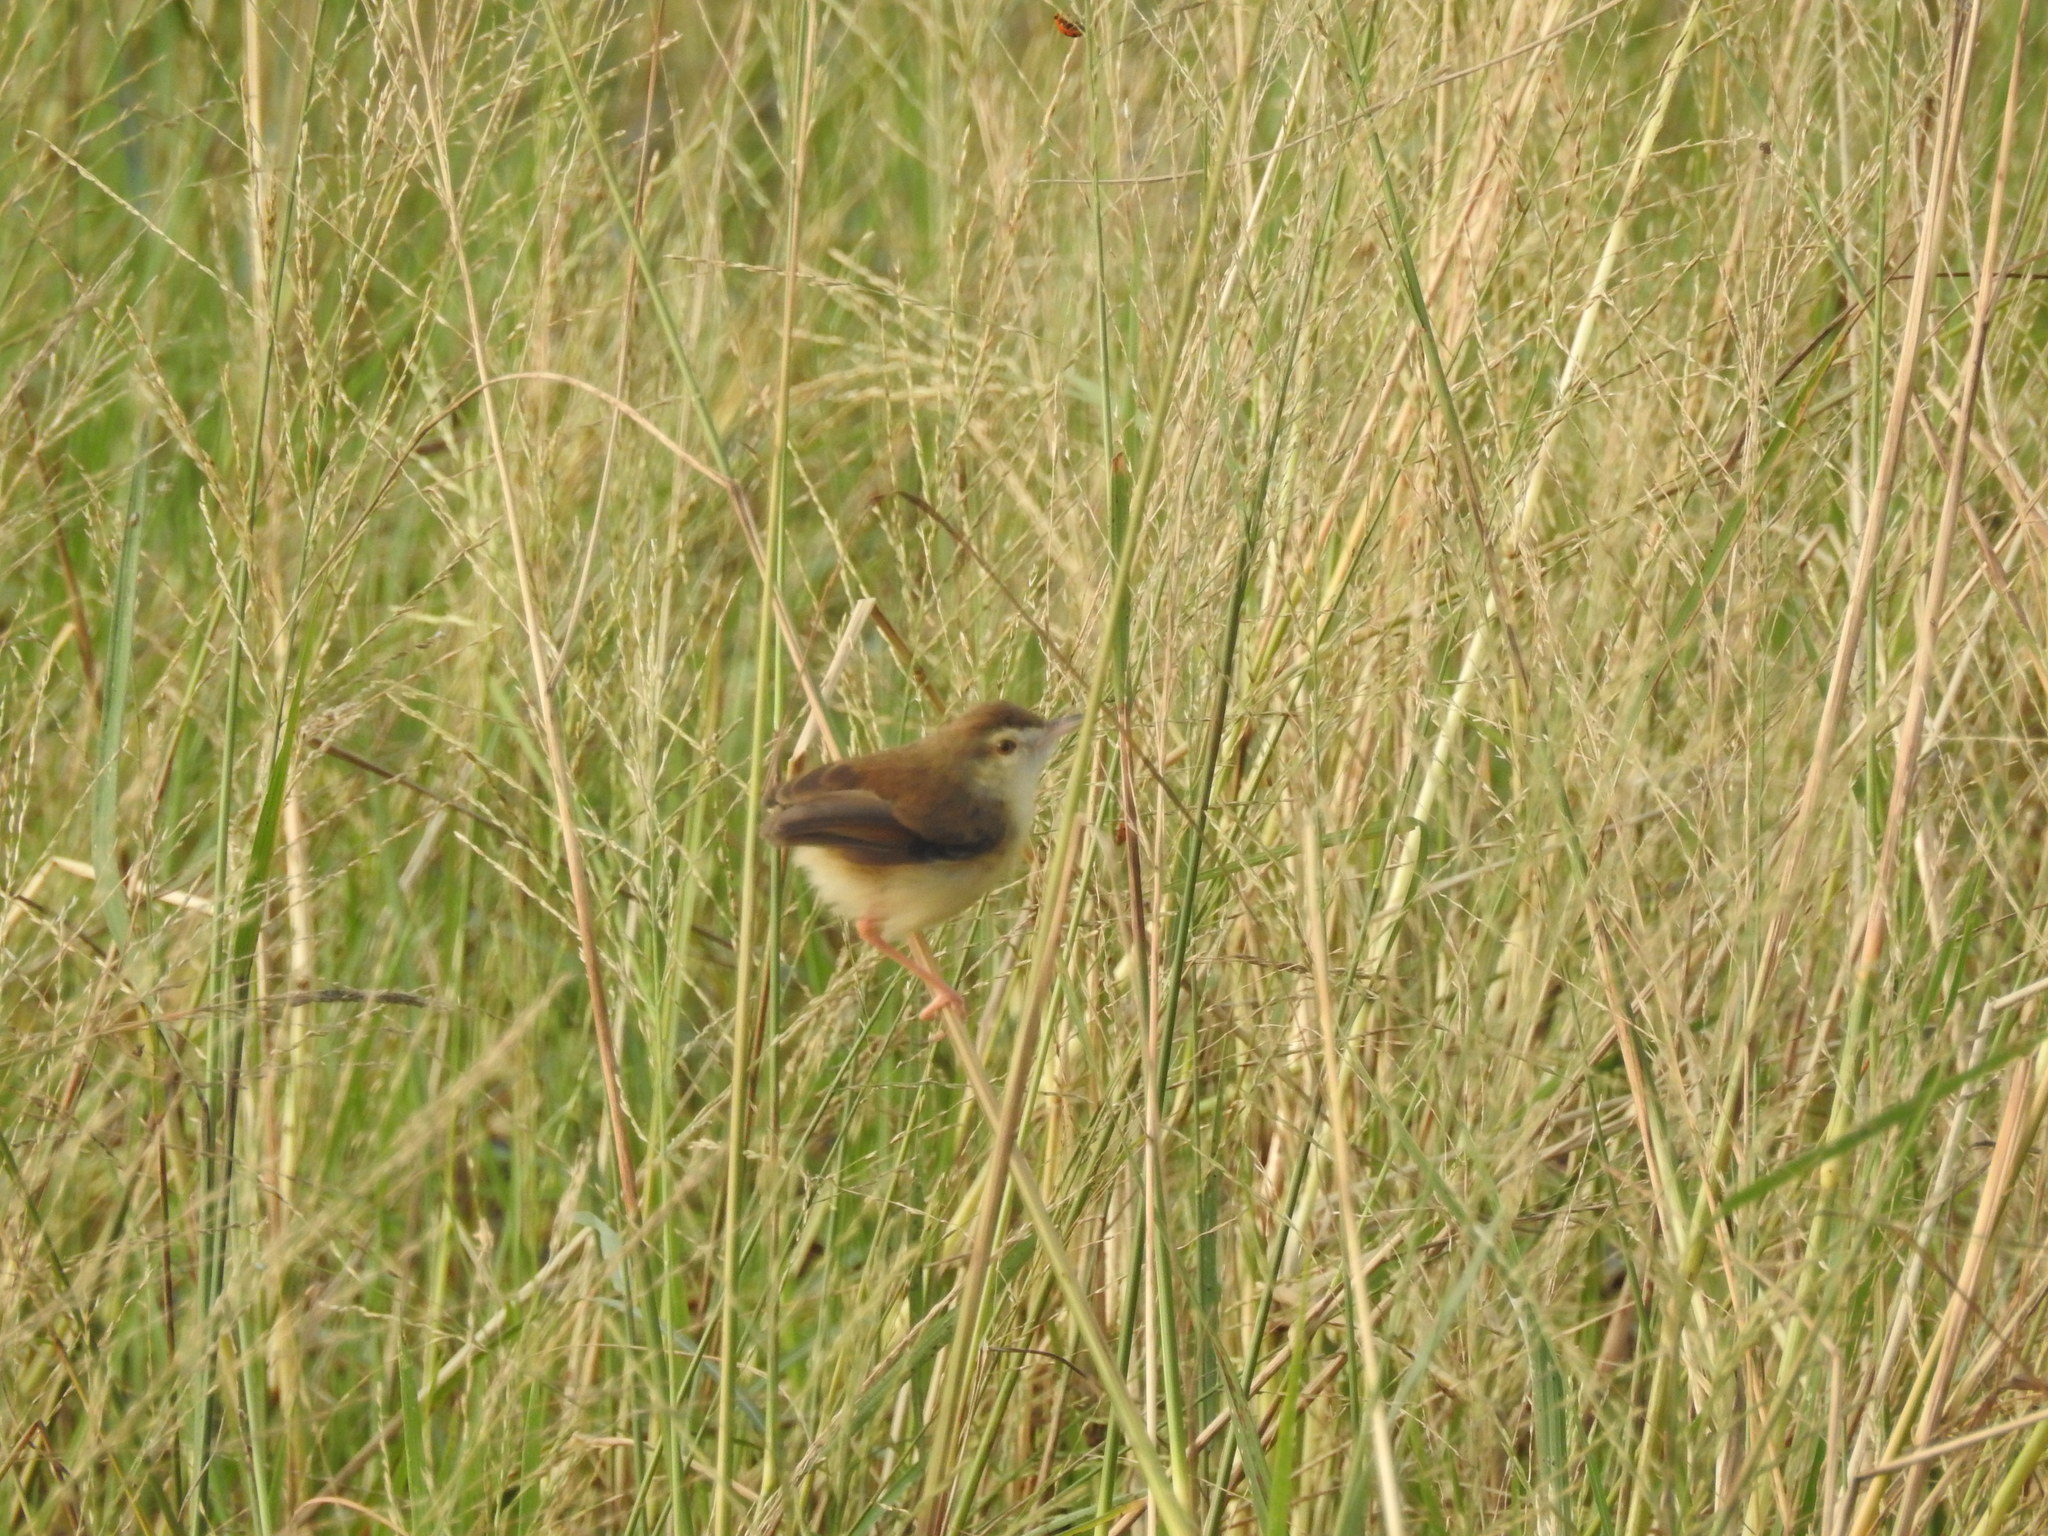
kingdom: Animalia
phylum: Chordata
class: Aves
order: Passeriformes
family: Cisticolidae
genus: Prinia
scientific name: Prinia inornata
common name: Plain prinia
